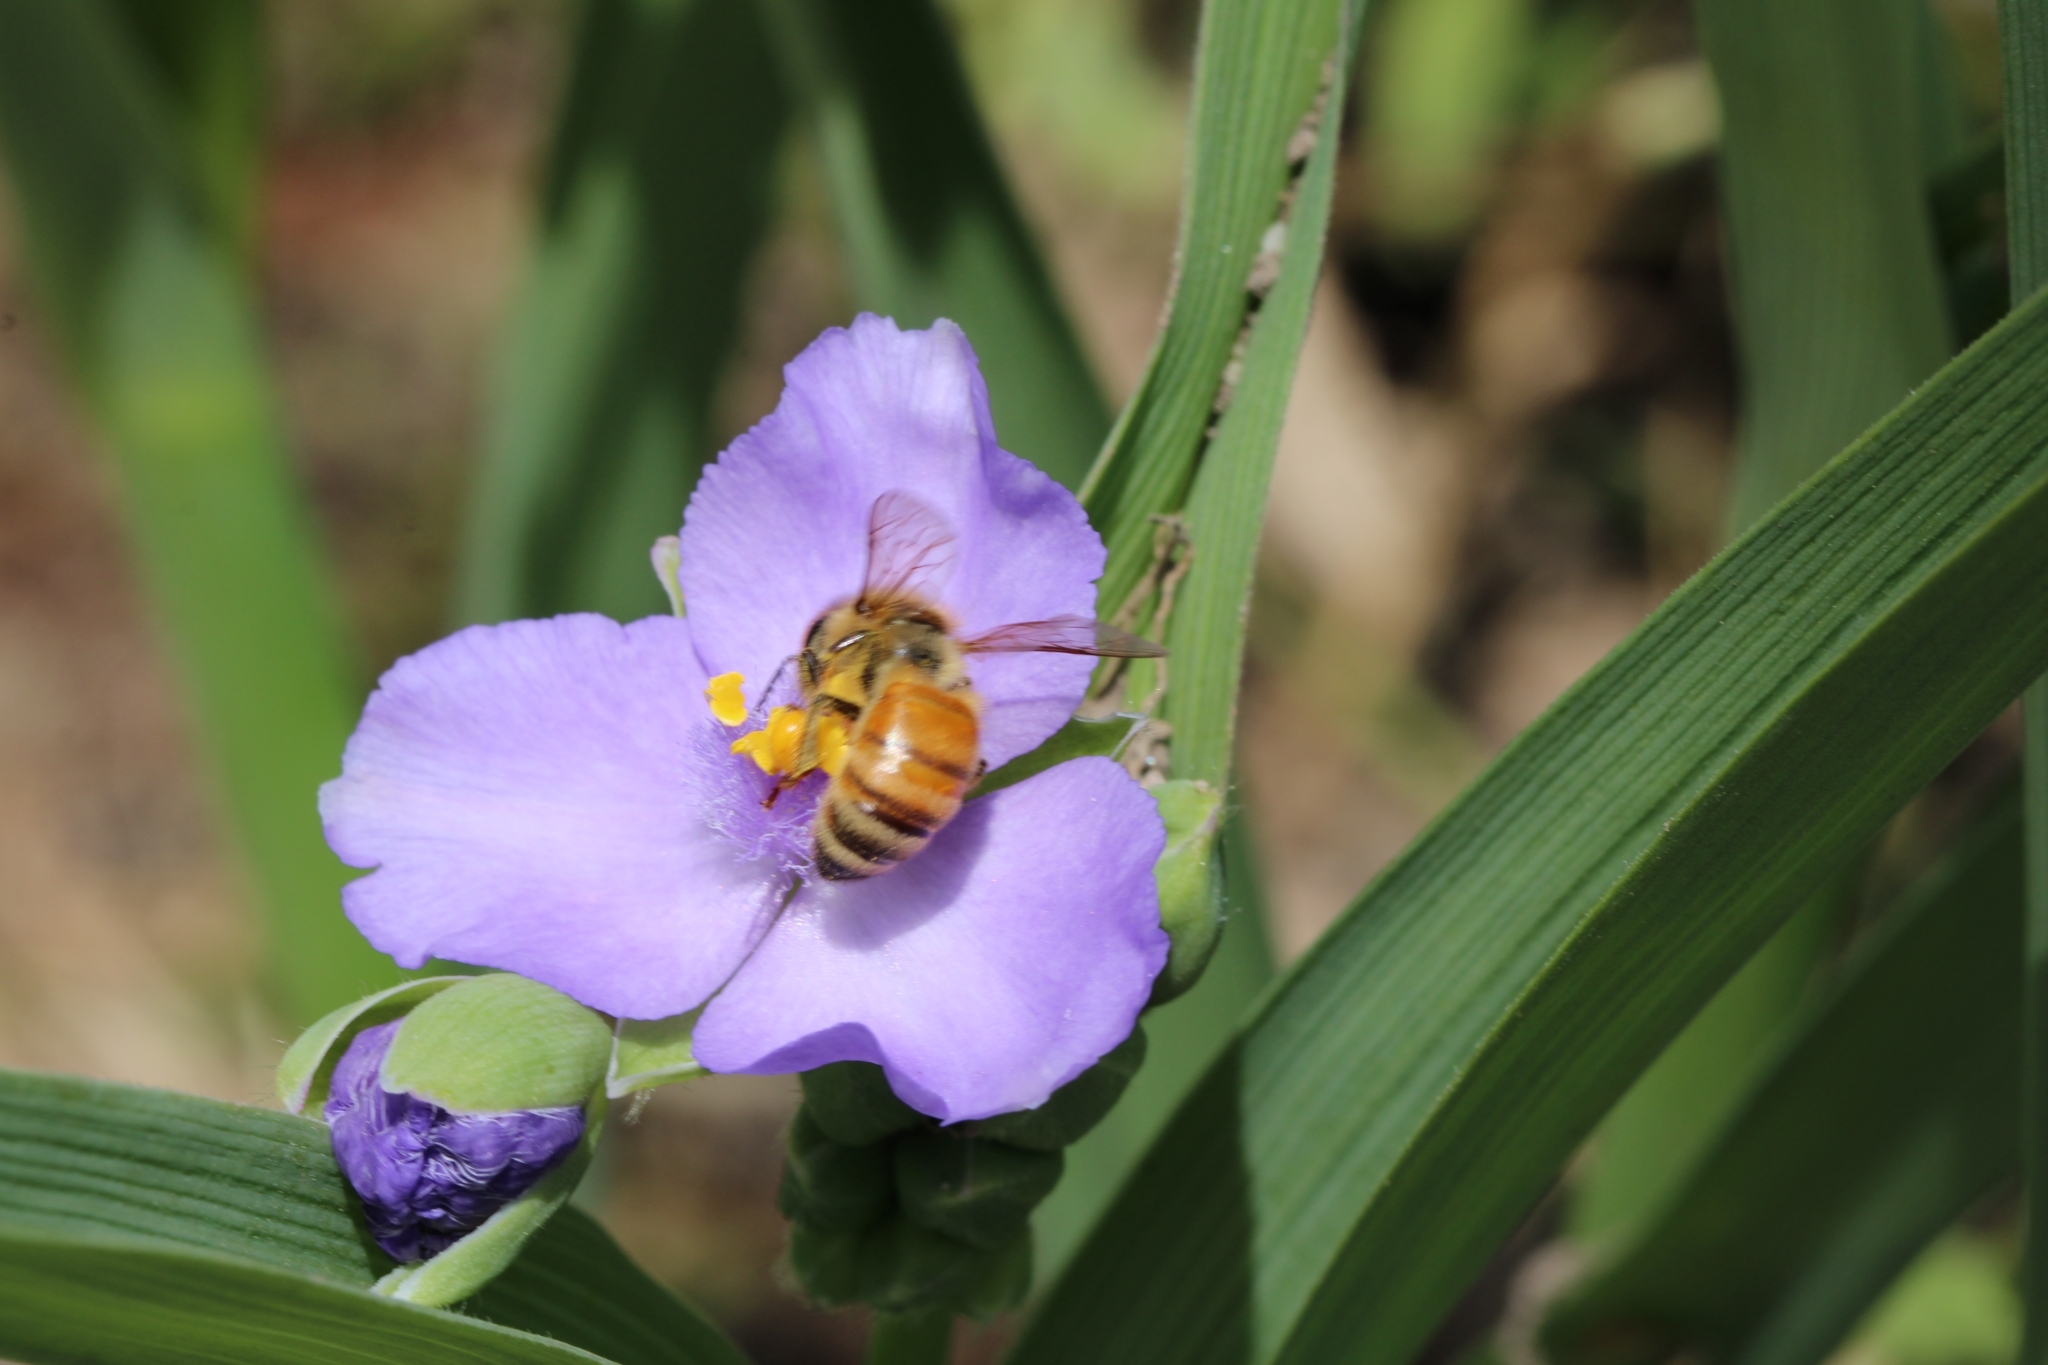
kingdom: Animalia
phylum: Arthropoda
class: Insecta
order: Hymenoptera
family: Apidae
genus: Apis
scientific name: Apis mellifera
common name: Honey bee
